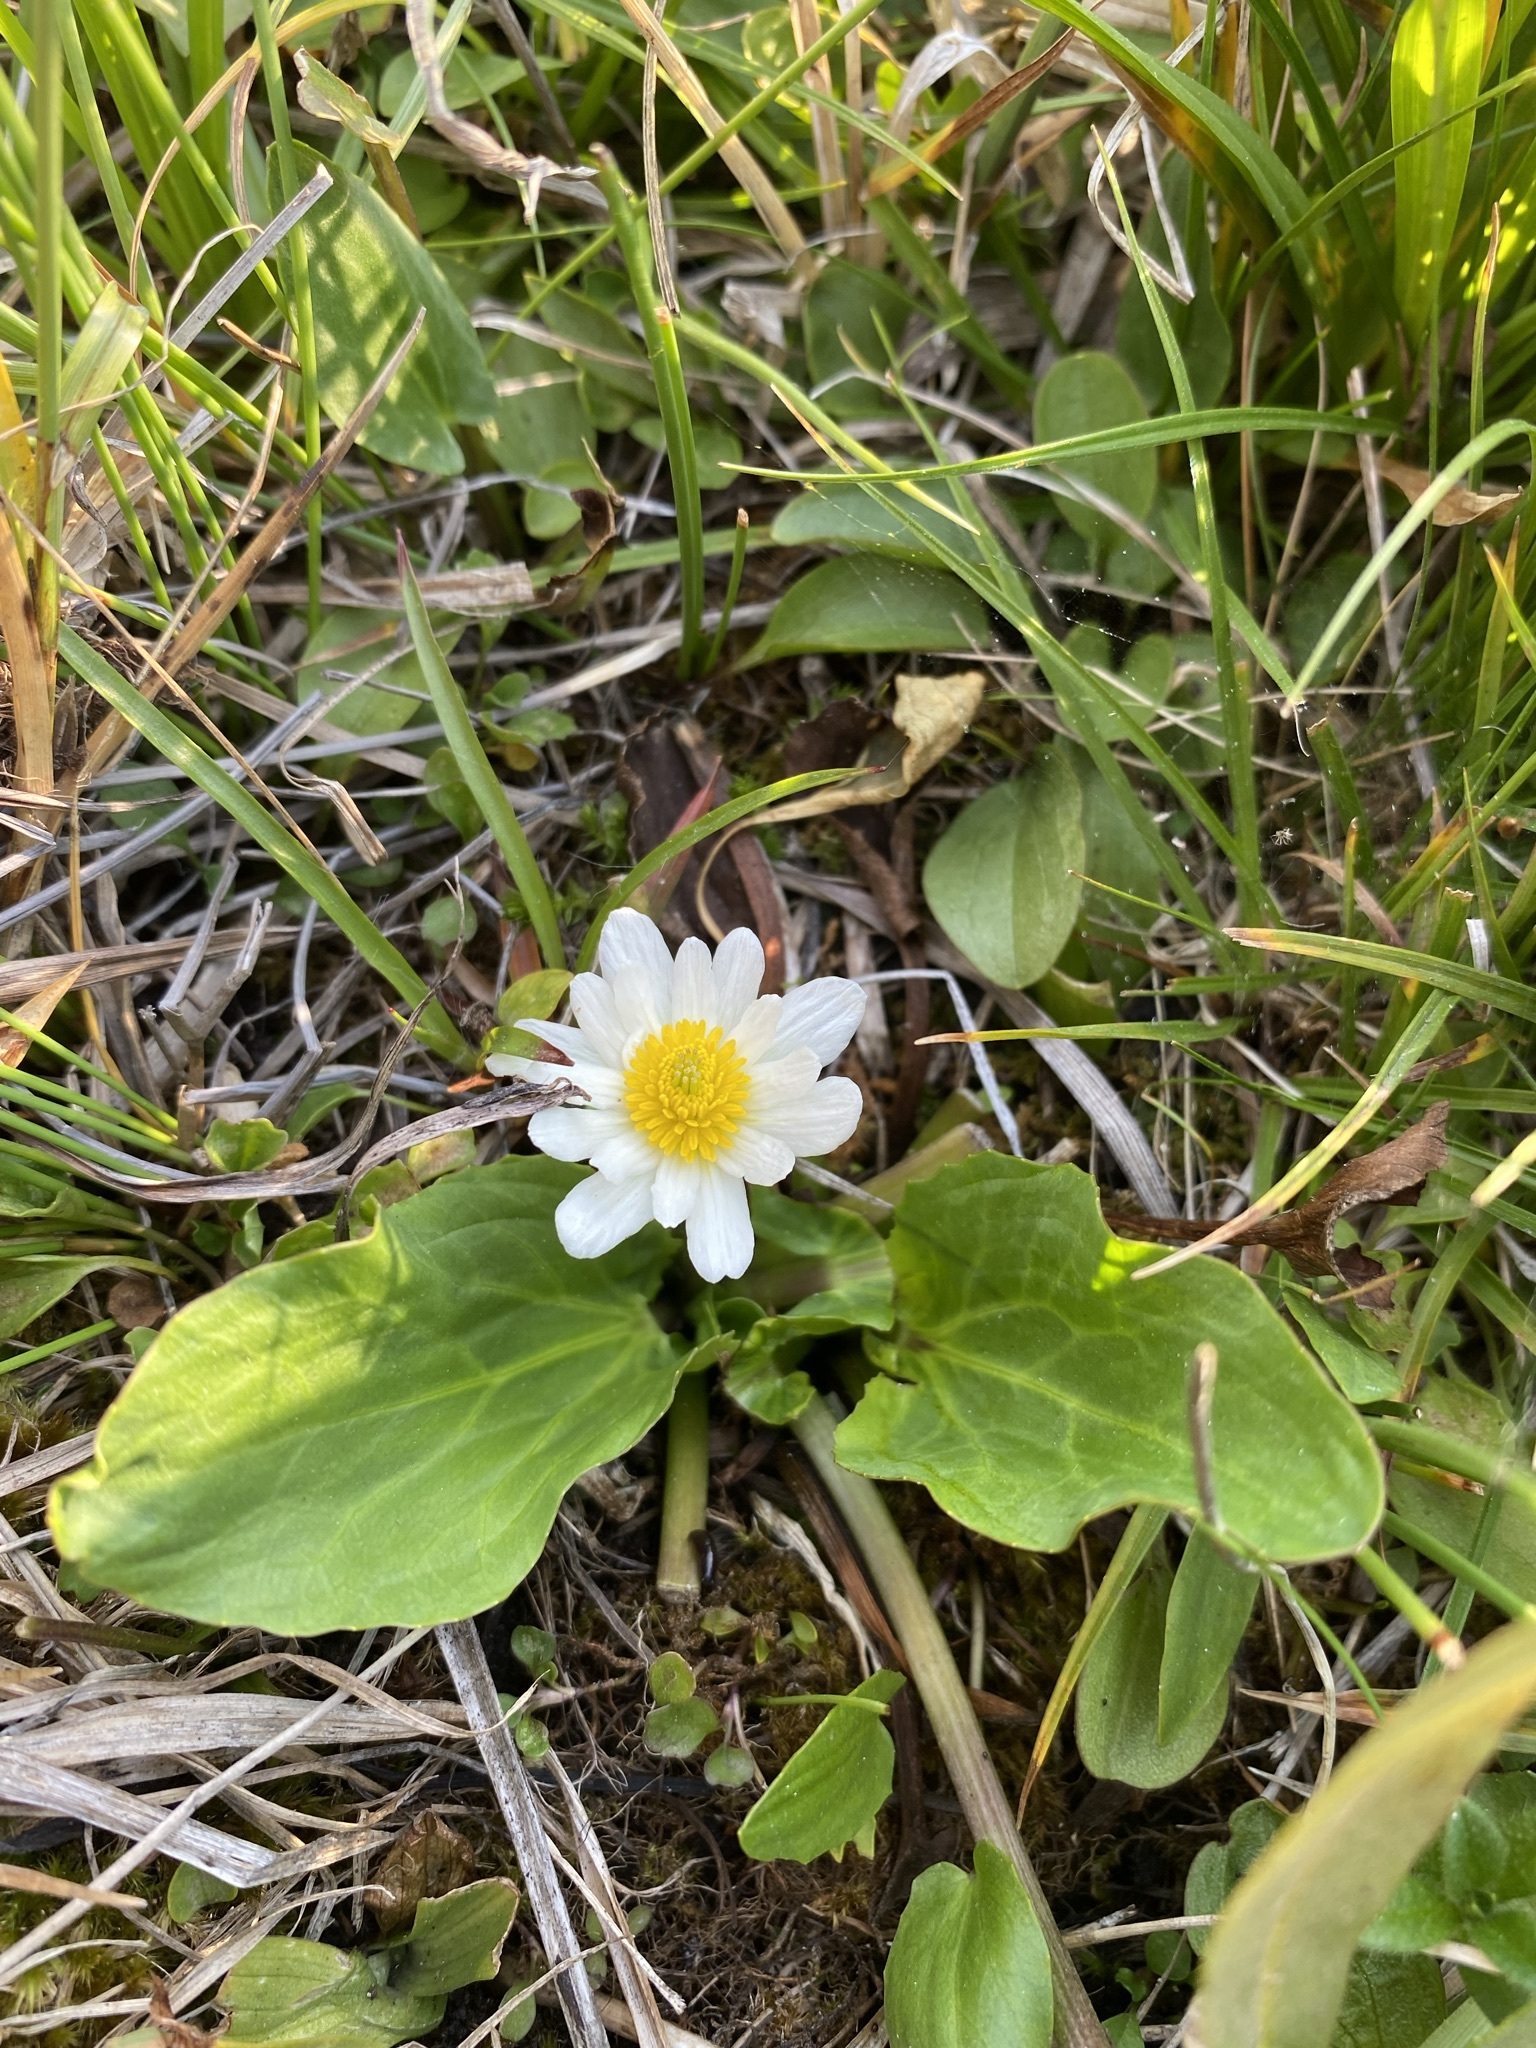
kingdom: Plantae
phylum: Tracheophyta
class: Magnoliopsida
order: Ranunculales
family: Ranunculaceae
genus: Caltha
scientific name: Caltha leptosepala
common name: Elkslip
